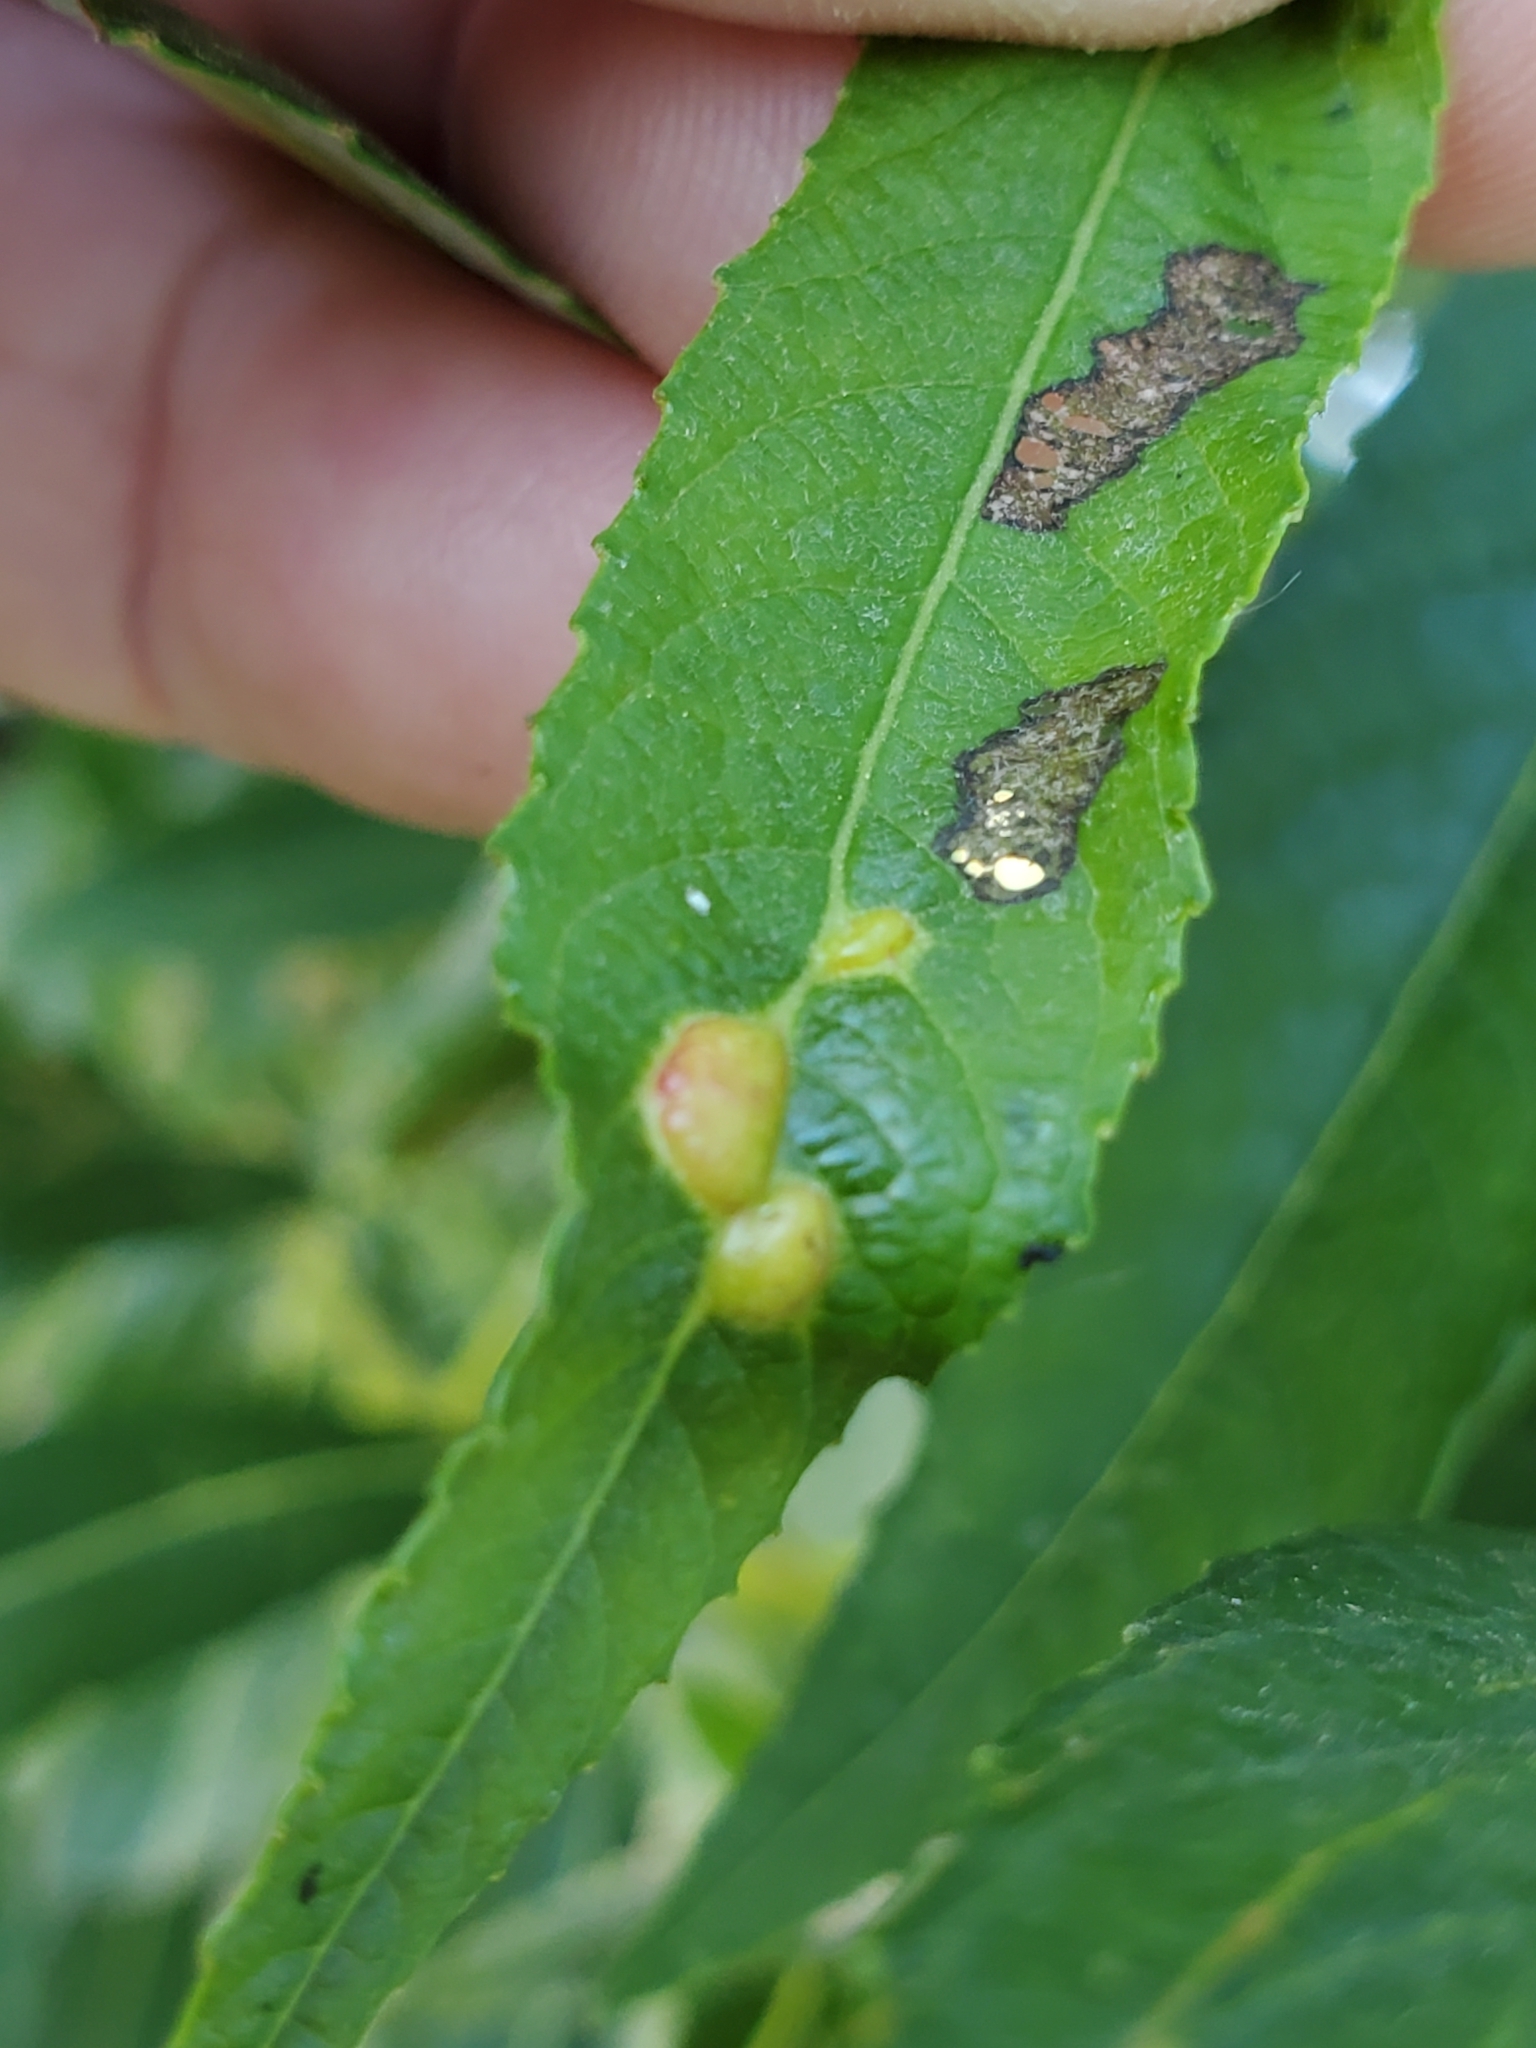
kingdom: Animalia
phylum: Arthropoda
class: Arachnida
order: Trombidiformes
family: Eriophyidae
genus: Aculus
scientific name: Aculus tetanothrix
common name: Willow bead gall mite
